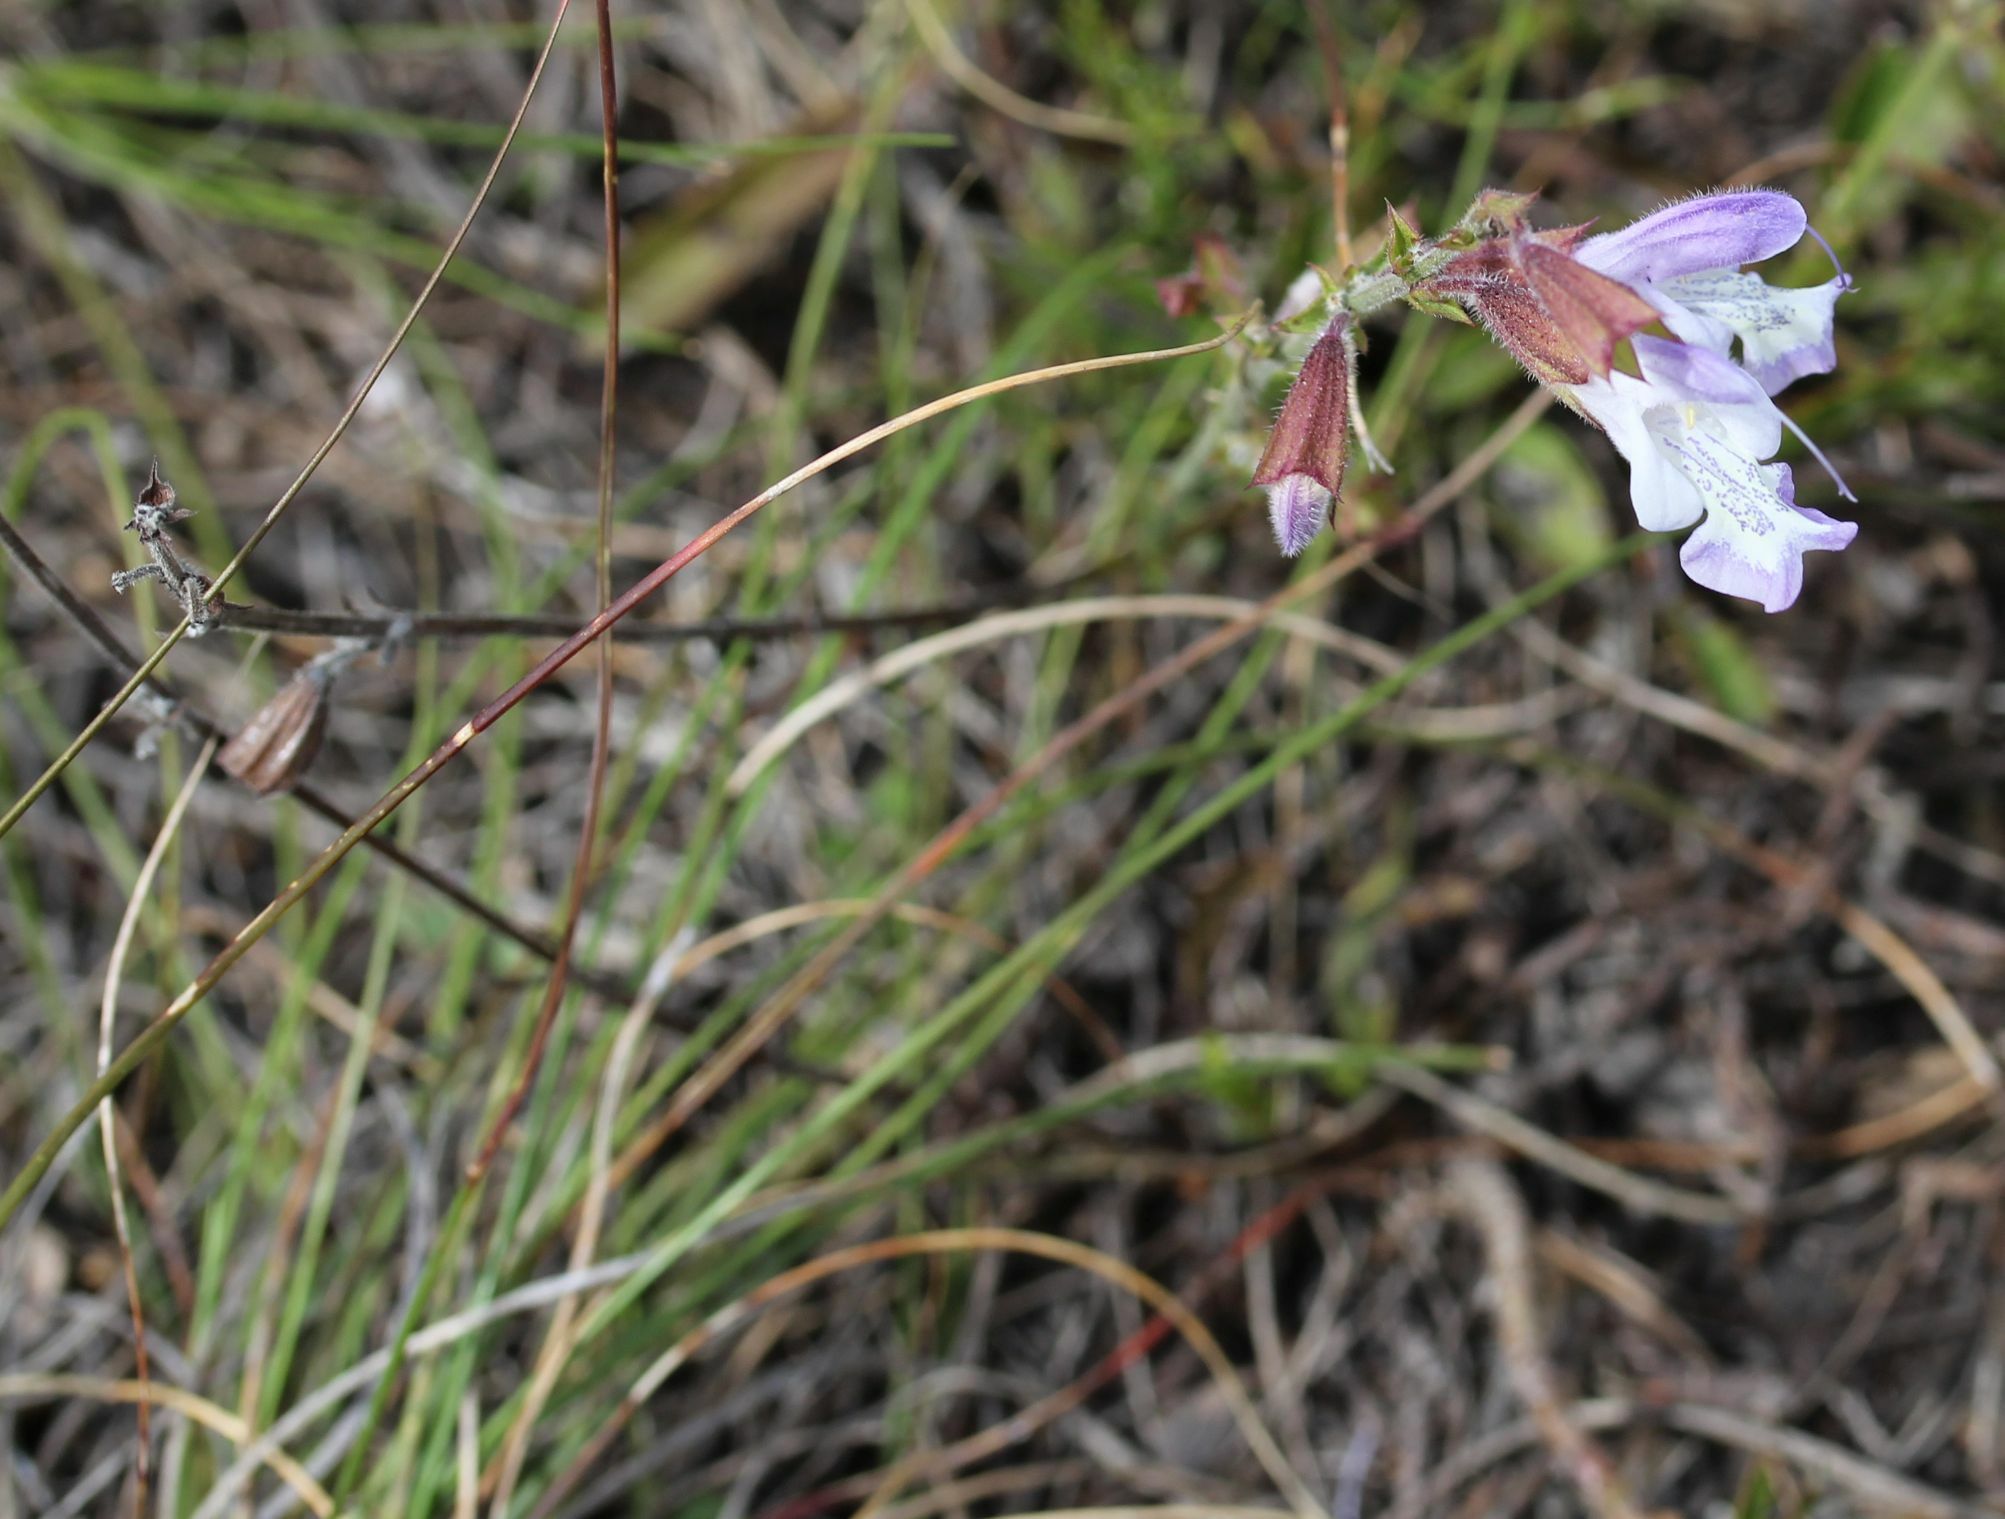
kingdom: Plantae
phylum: Tracheophyta
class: Magnoliopsida
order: Lamiales
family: Lamiaceae
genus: Salvia
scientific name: Salvia granitica
